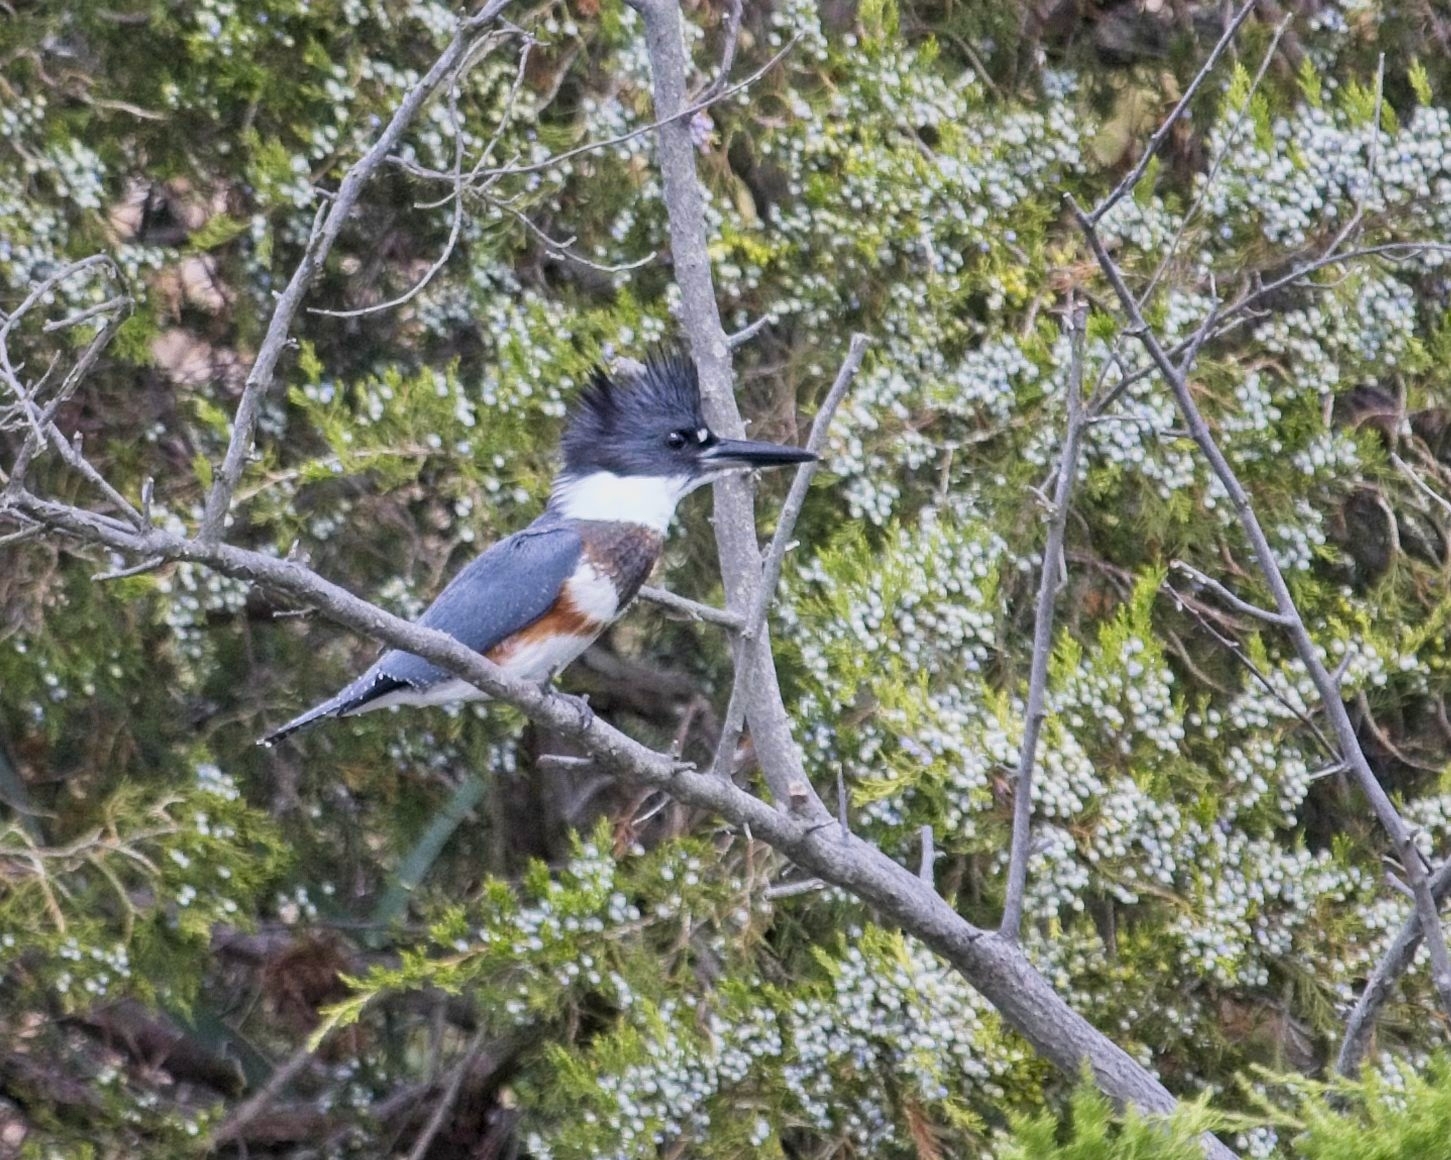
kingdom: Animalia
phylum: Chordata
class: Aves
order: Coraciiformes
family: Alcedinidae
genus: Megaceryle
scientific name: Megaceryle alcyon
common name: Belted kingfisher
